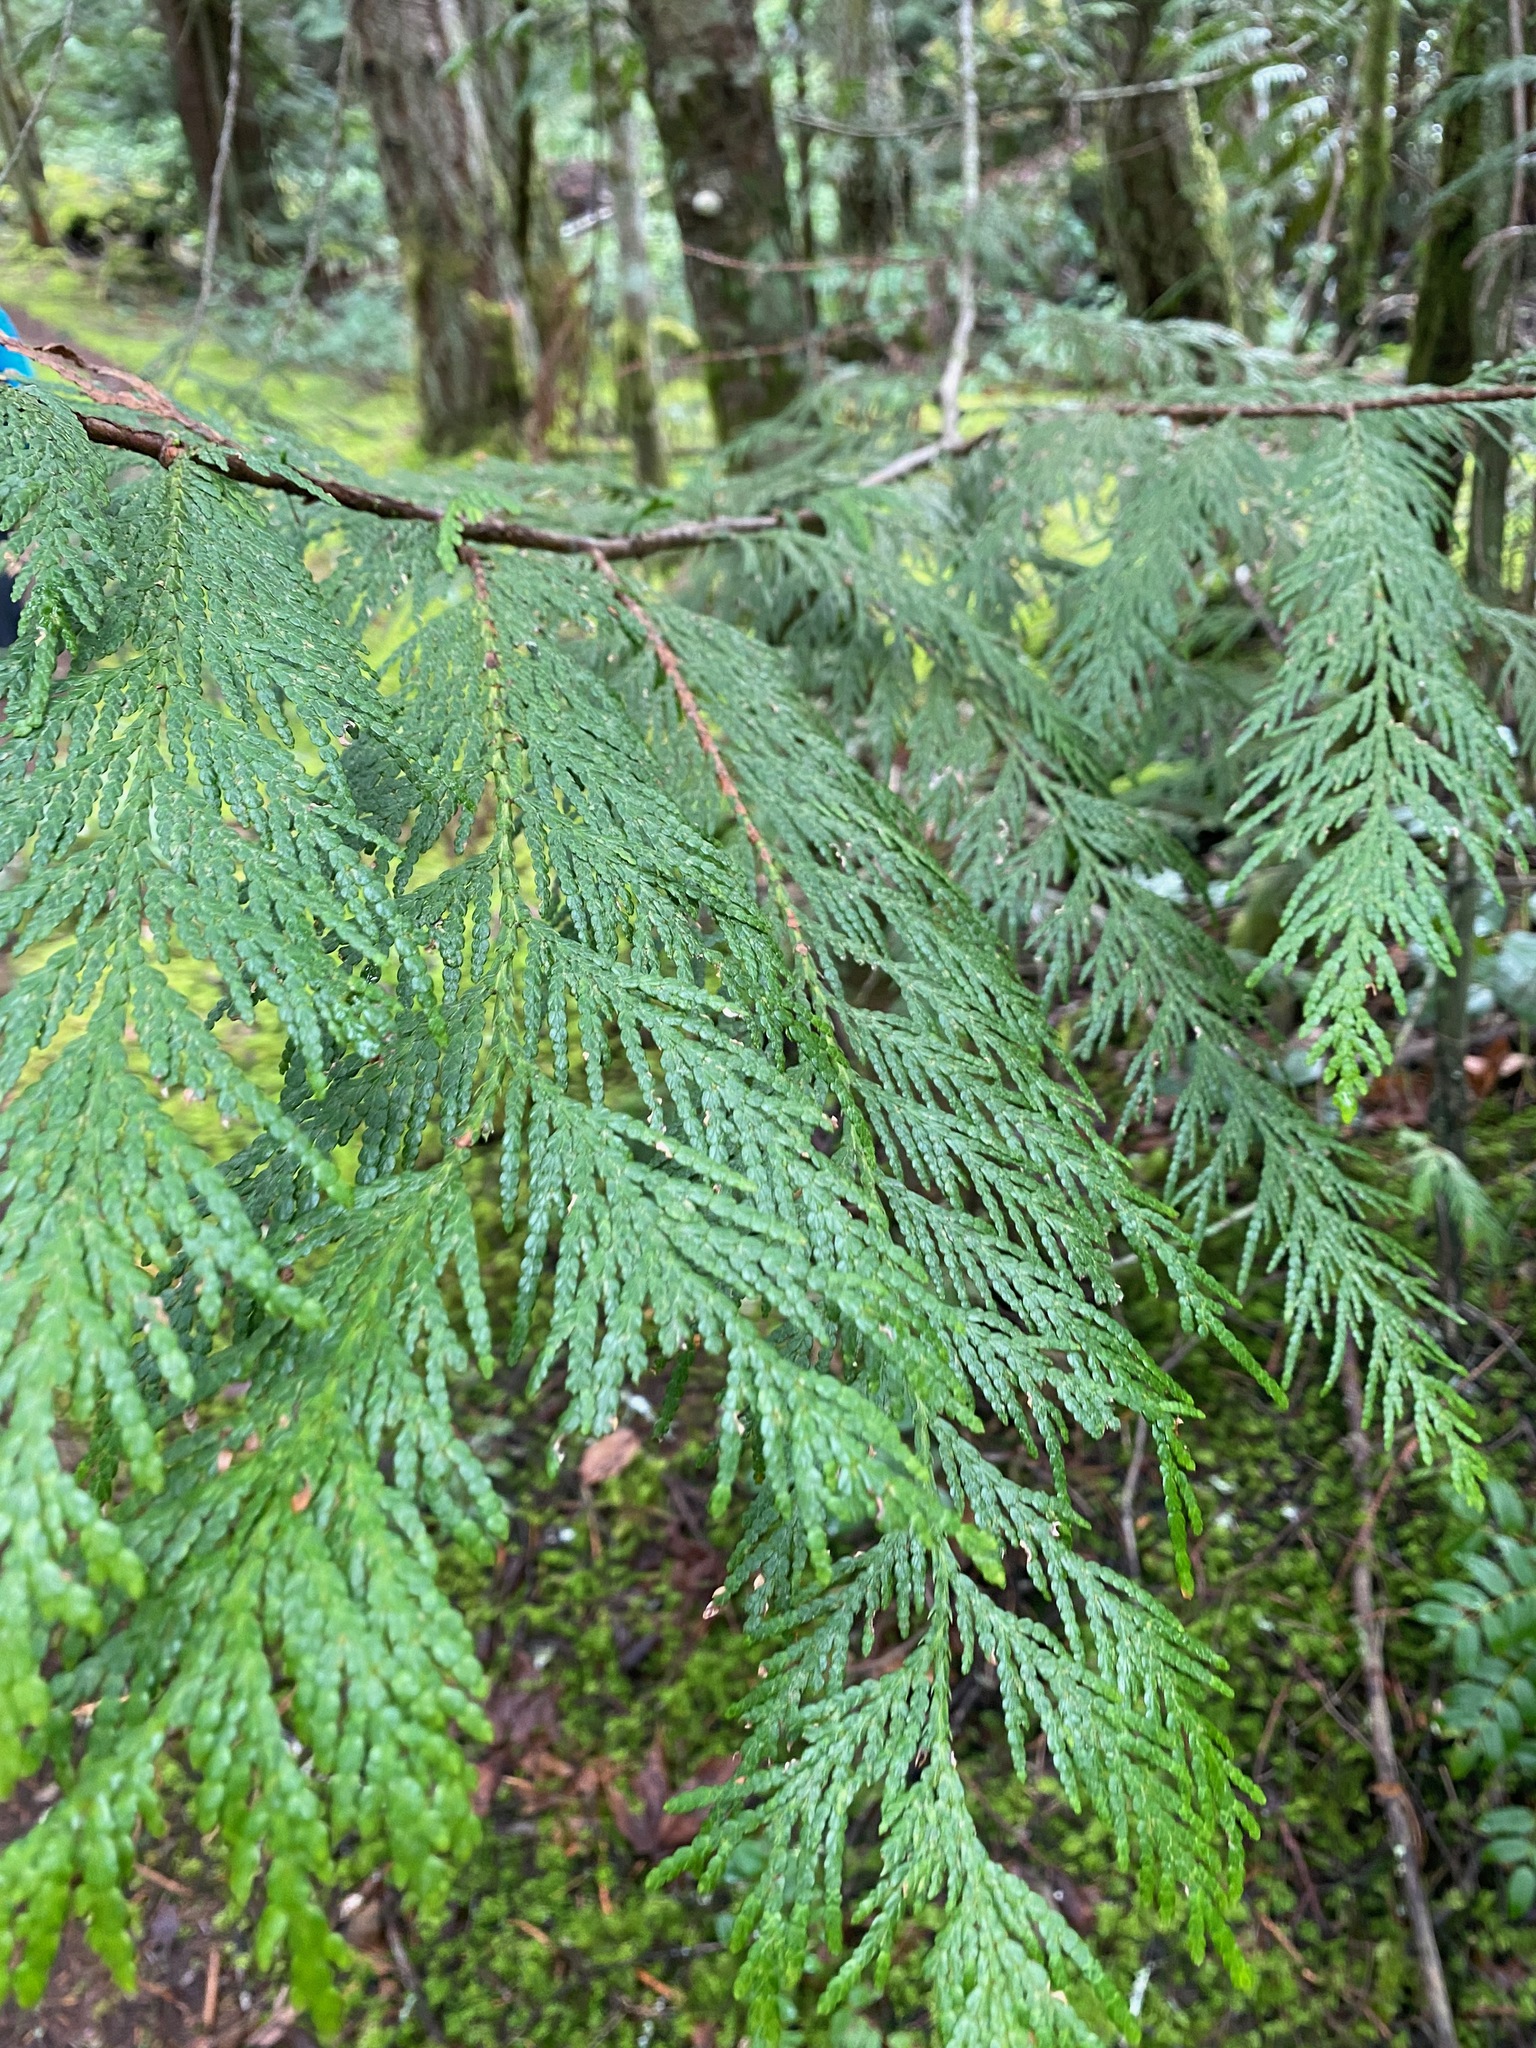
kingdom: Plantae
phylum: Tracheophyta
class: Pinopsida
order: Pinales
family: Cupressaceae
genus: Thuja
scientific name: Thuja plicata
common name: Western red-cedar
